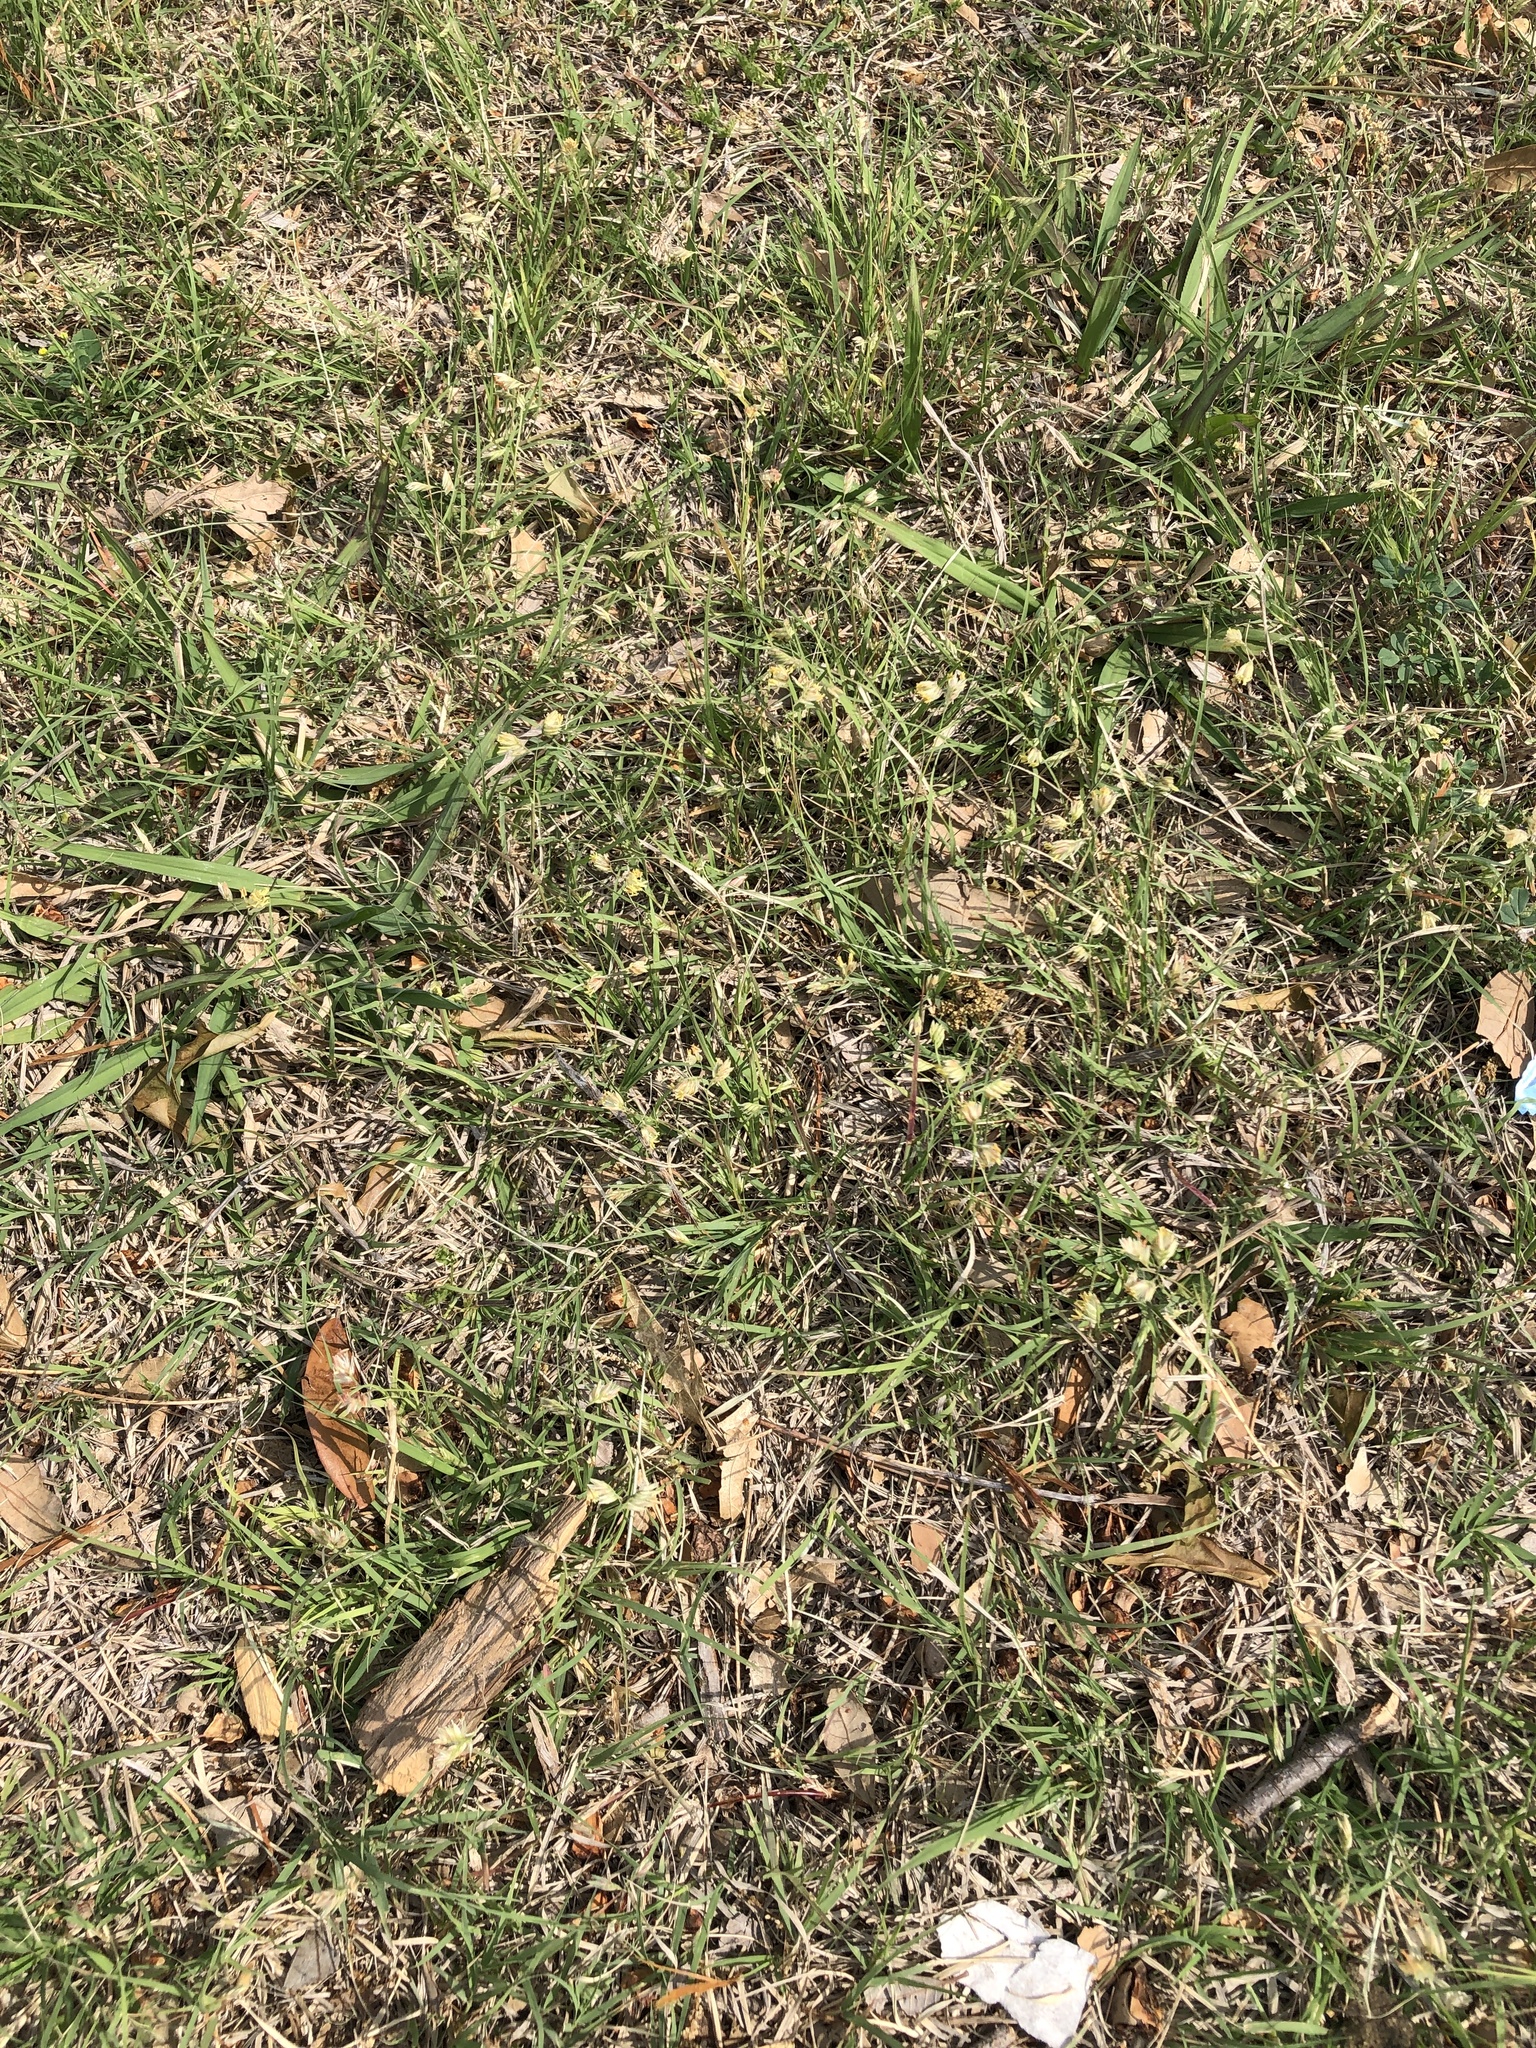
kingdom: Plantae
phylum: Tracheophyta
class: Liliopsida
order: Poales
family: Poaceae
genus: Bouteloua
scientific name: Bouteloua dactyloides
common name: Buffalo grass
